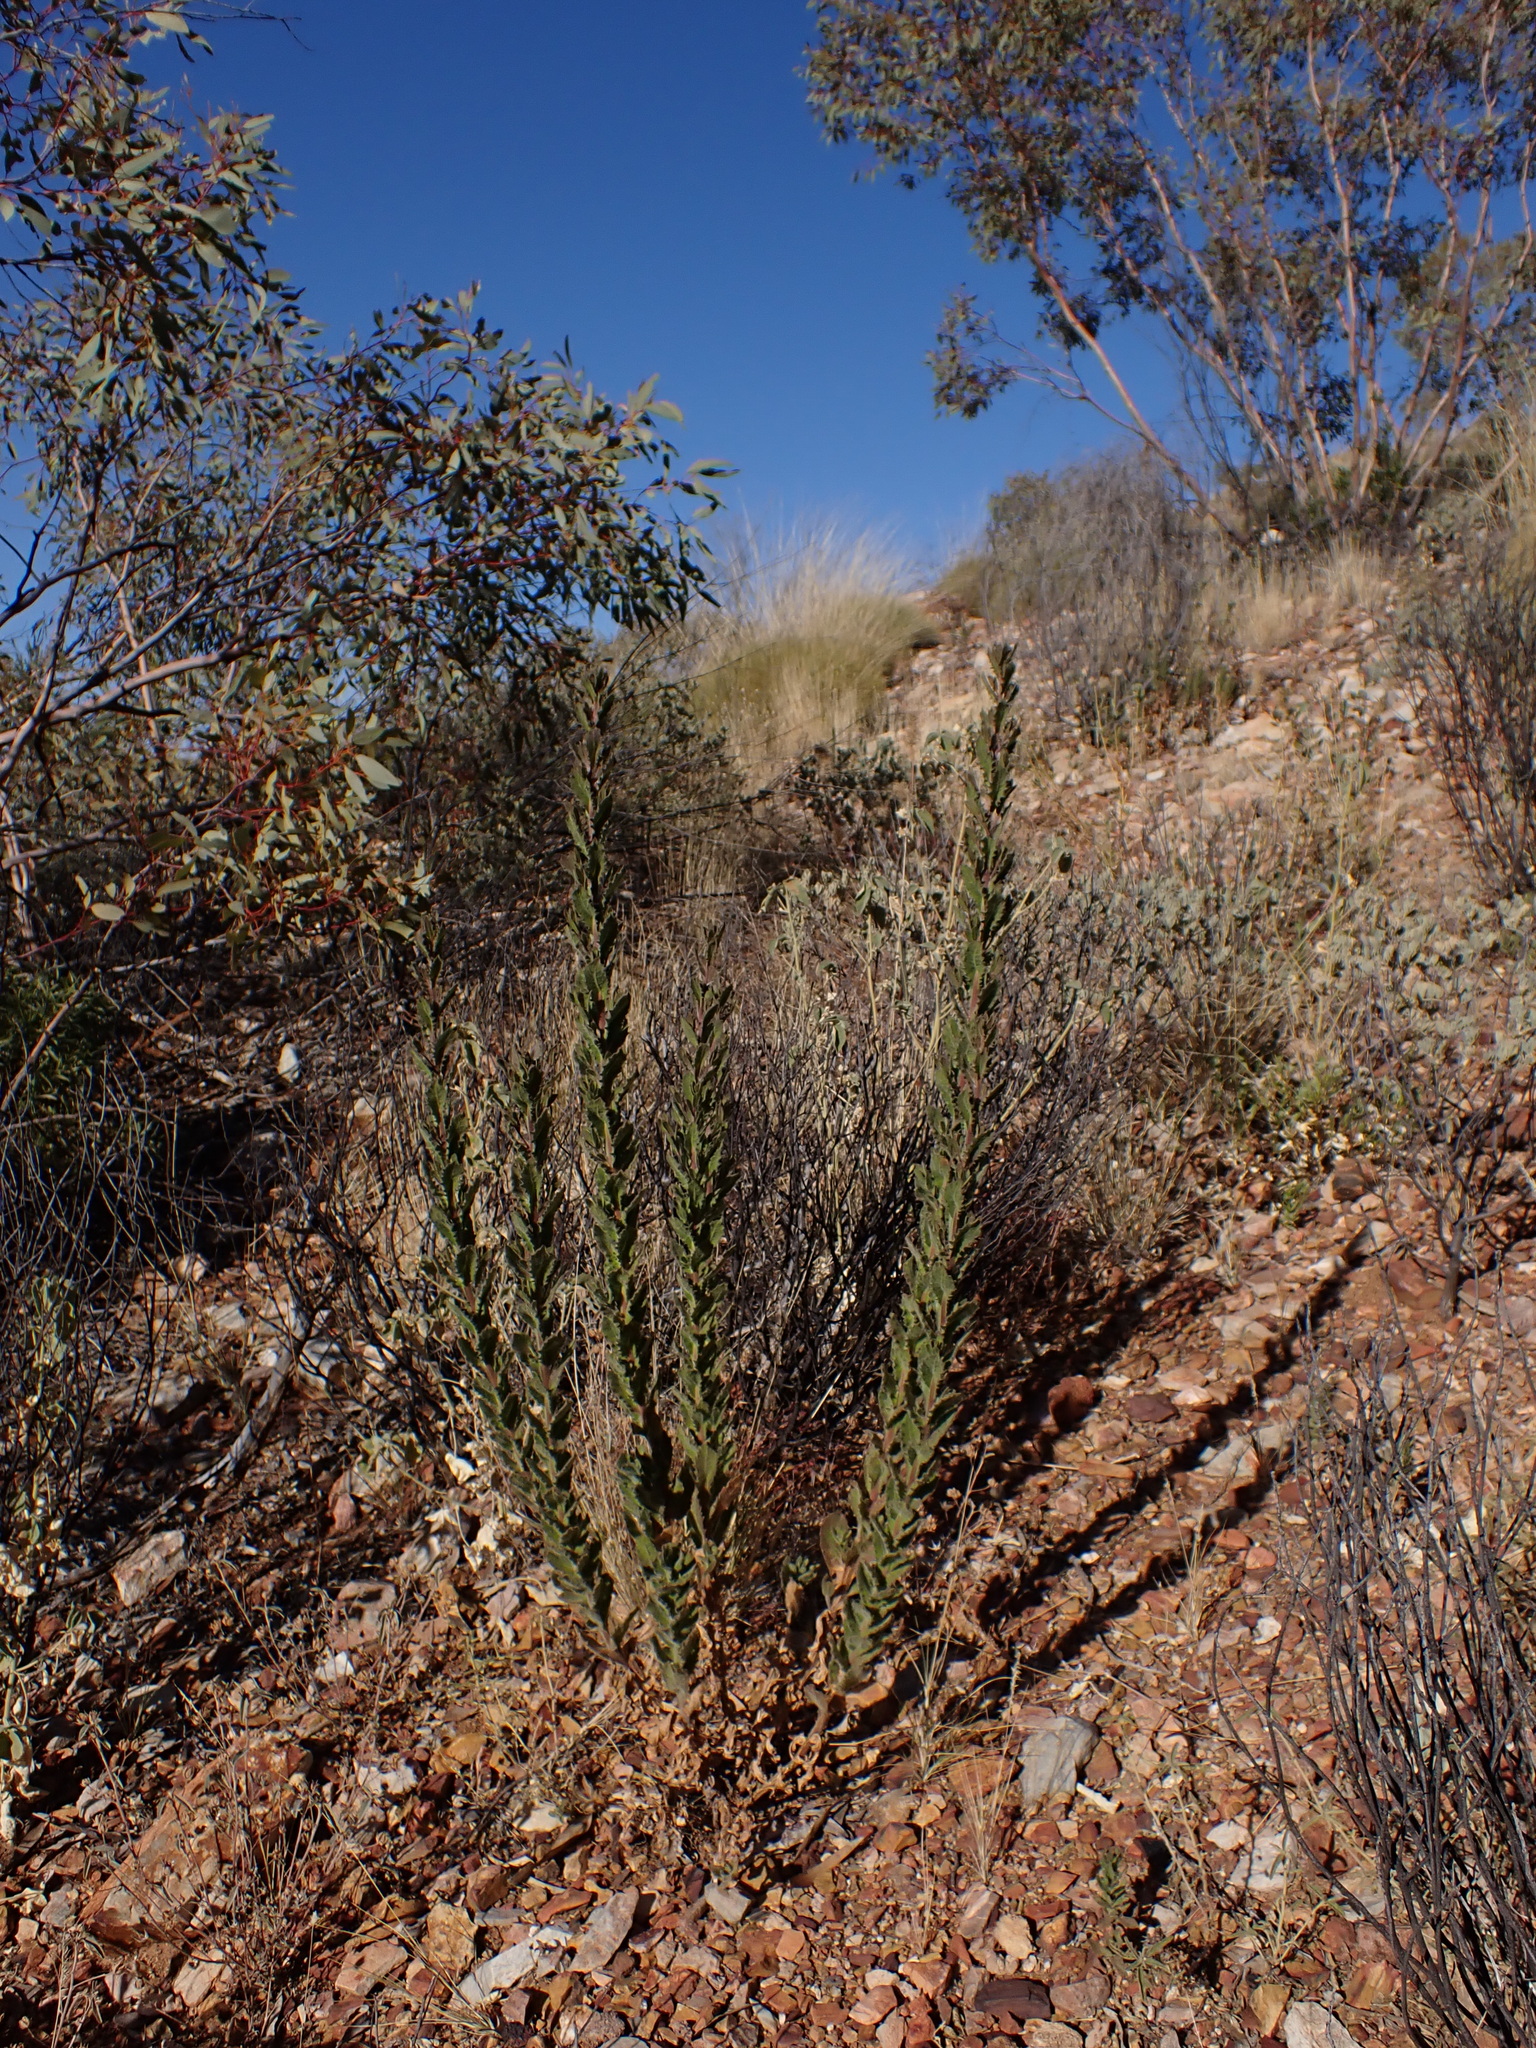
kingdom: Plantae
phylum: Tracheophyta
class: Magnoliopsida
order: Asterales
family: Asteraceae
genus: Streptoglossa
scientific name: Streptoglossa decurrens
